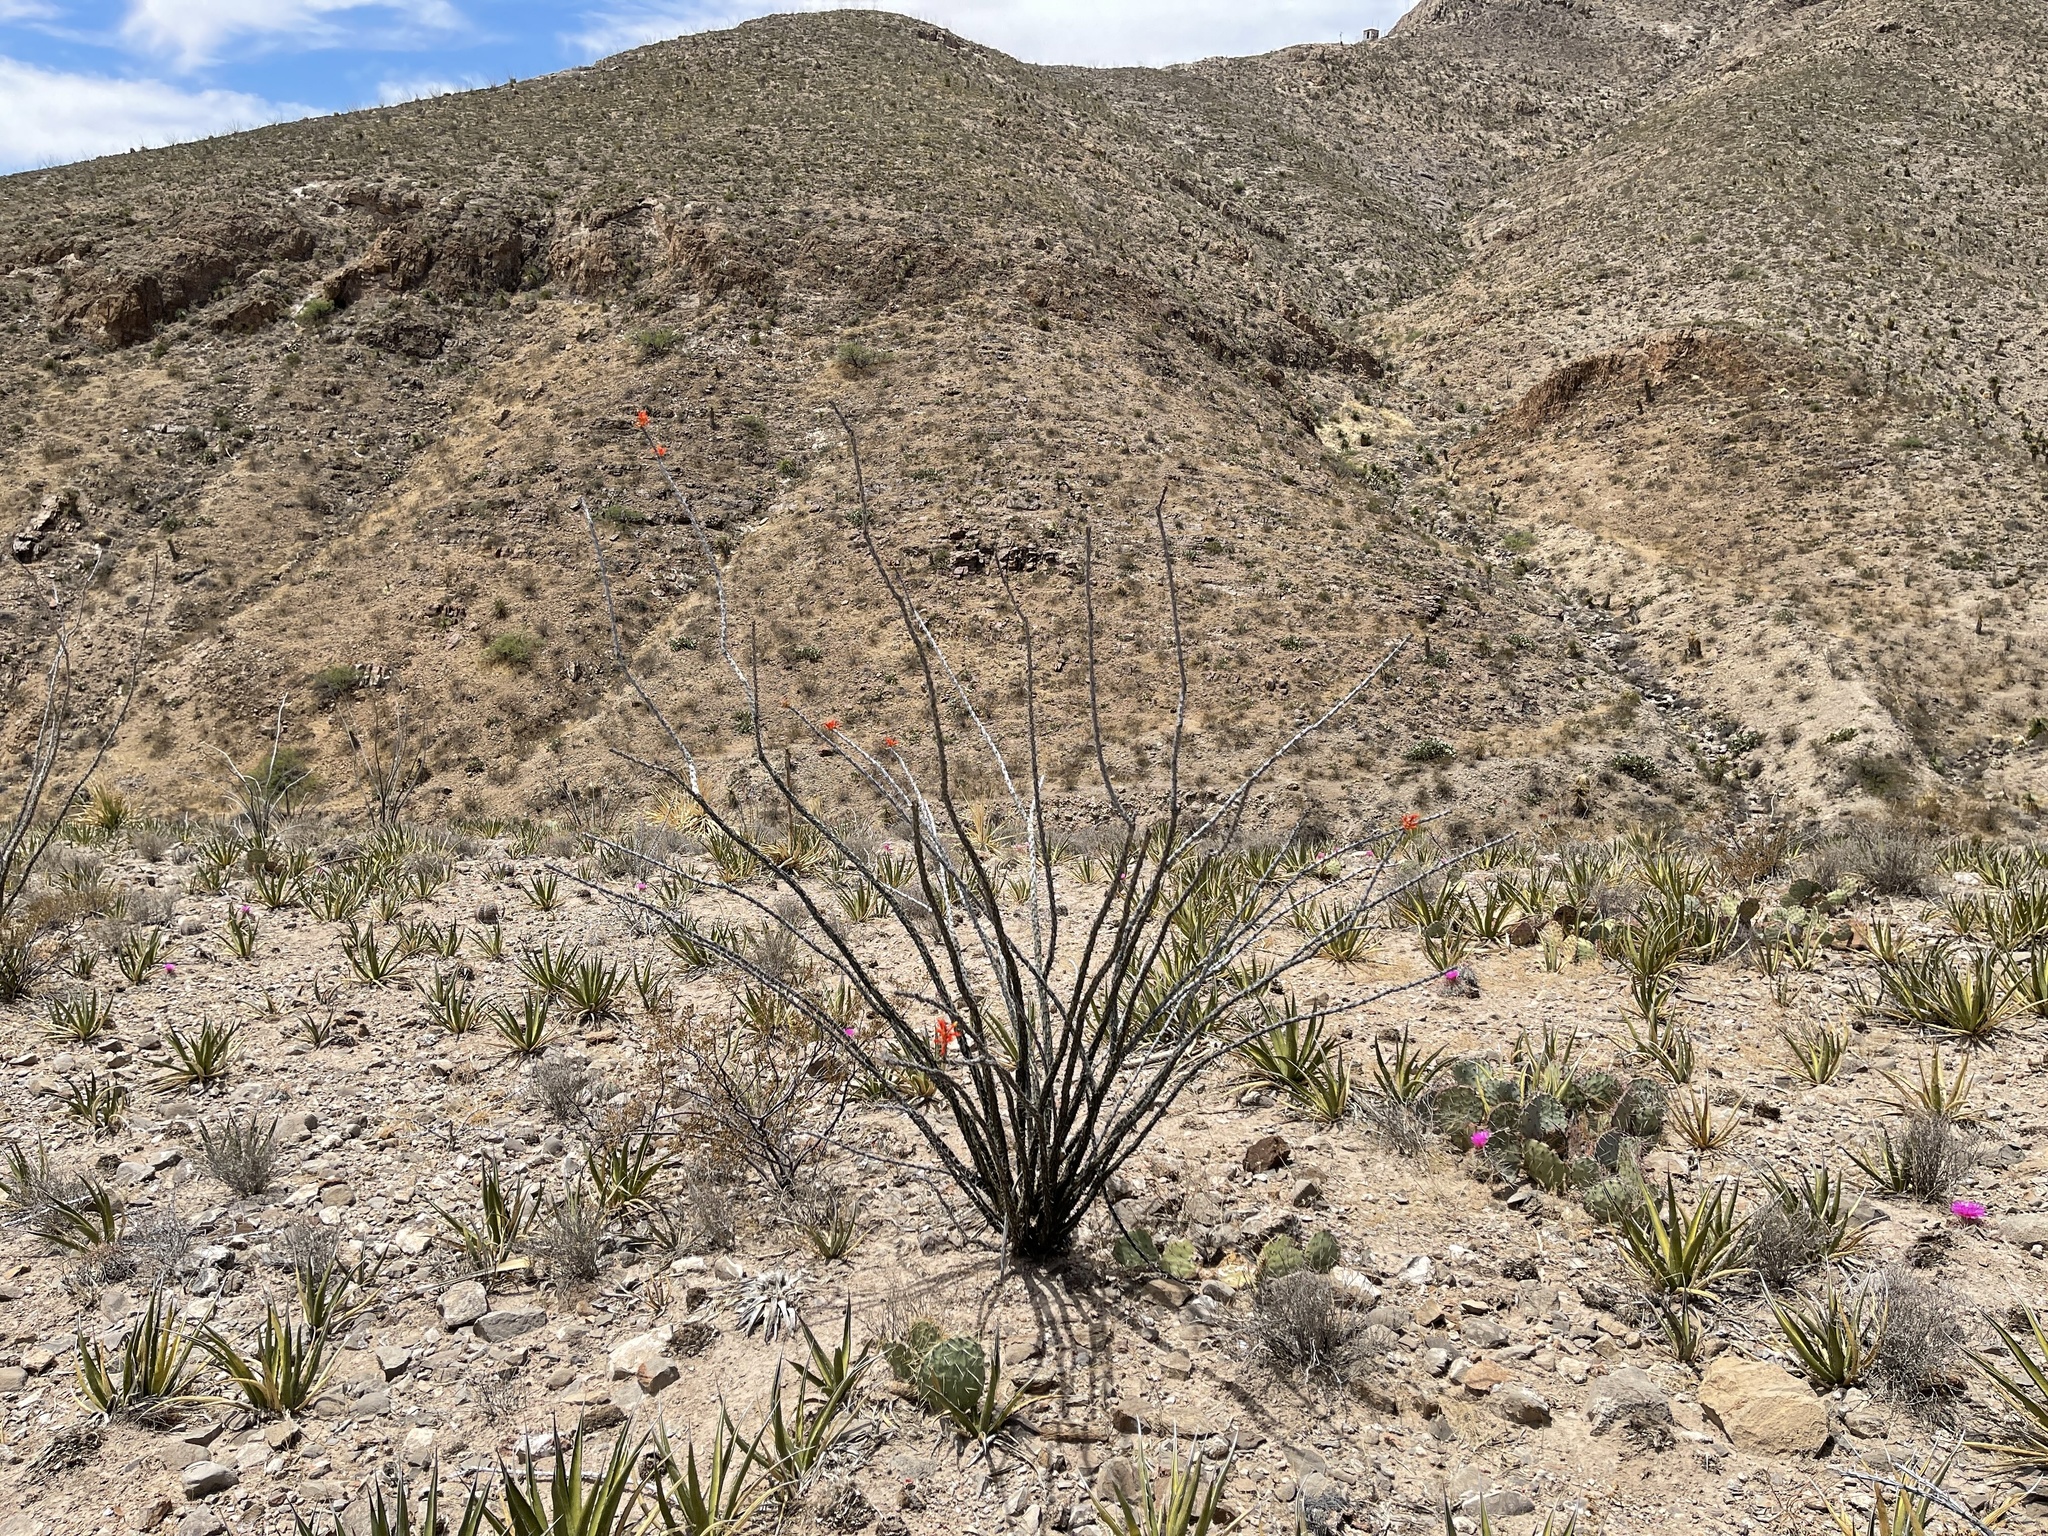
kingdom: Plantae
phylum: Tracheophyta
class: Magnoliopsida
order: Ericales
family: Fouquieriaceae
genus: Fouquieria
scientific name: Fouquieria splendens
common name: Vine-cactus
